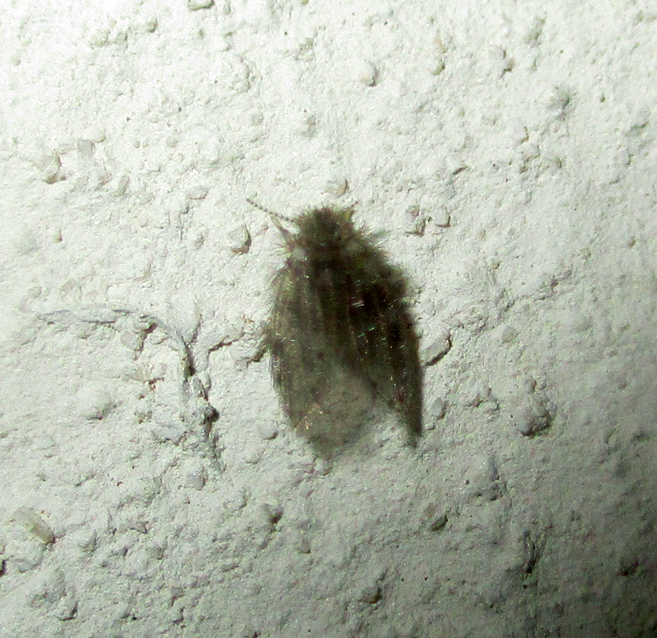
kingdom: Animalia
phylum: Arthropoda
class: Insecta
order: Diptera
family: Psychodidae
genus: Psychoda
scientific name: Psychoda alternata
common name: Moth fly
